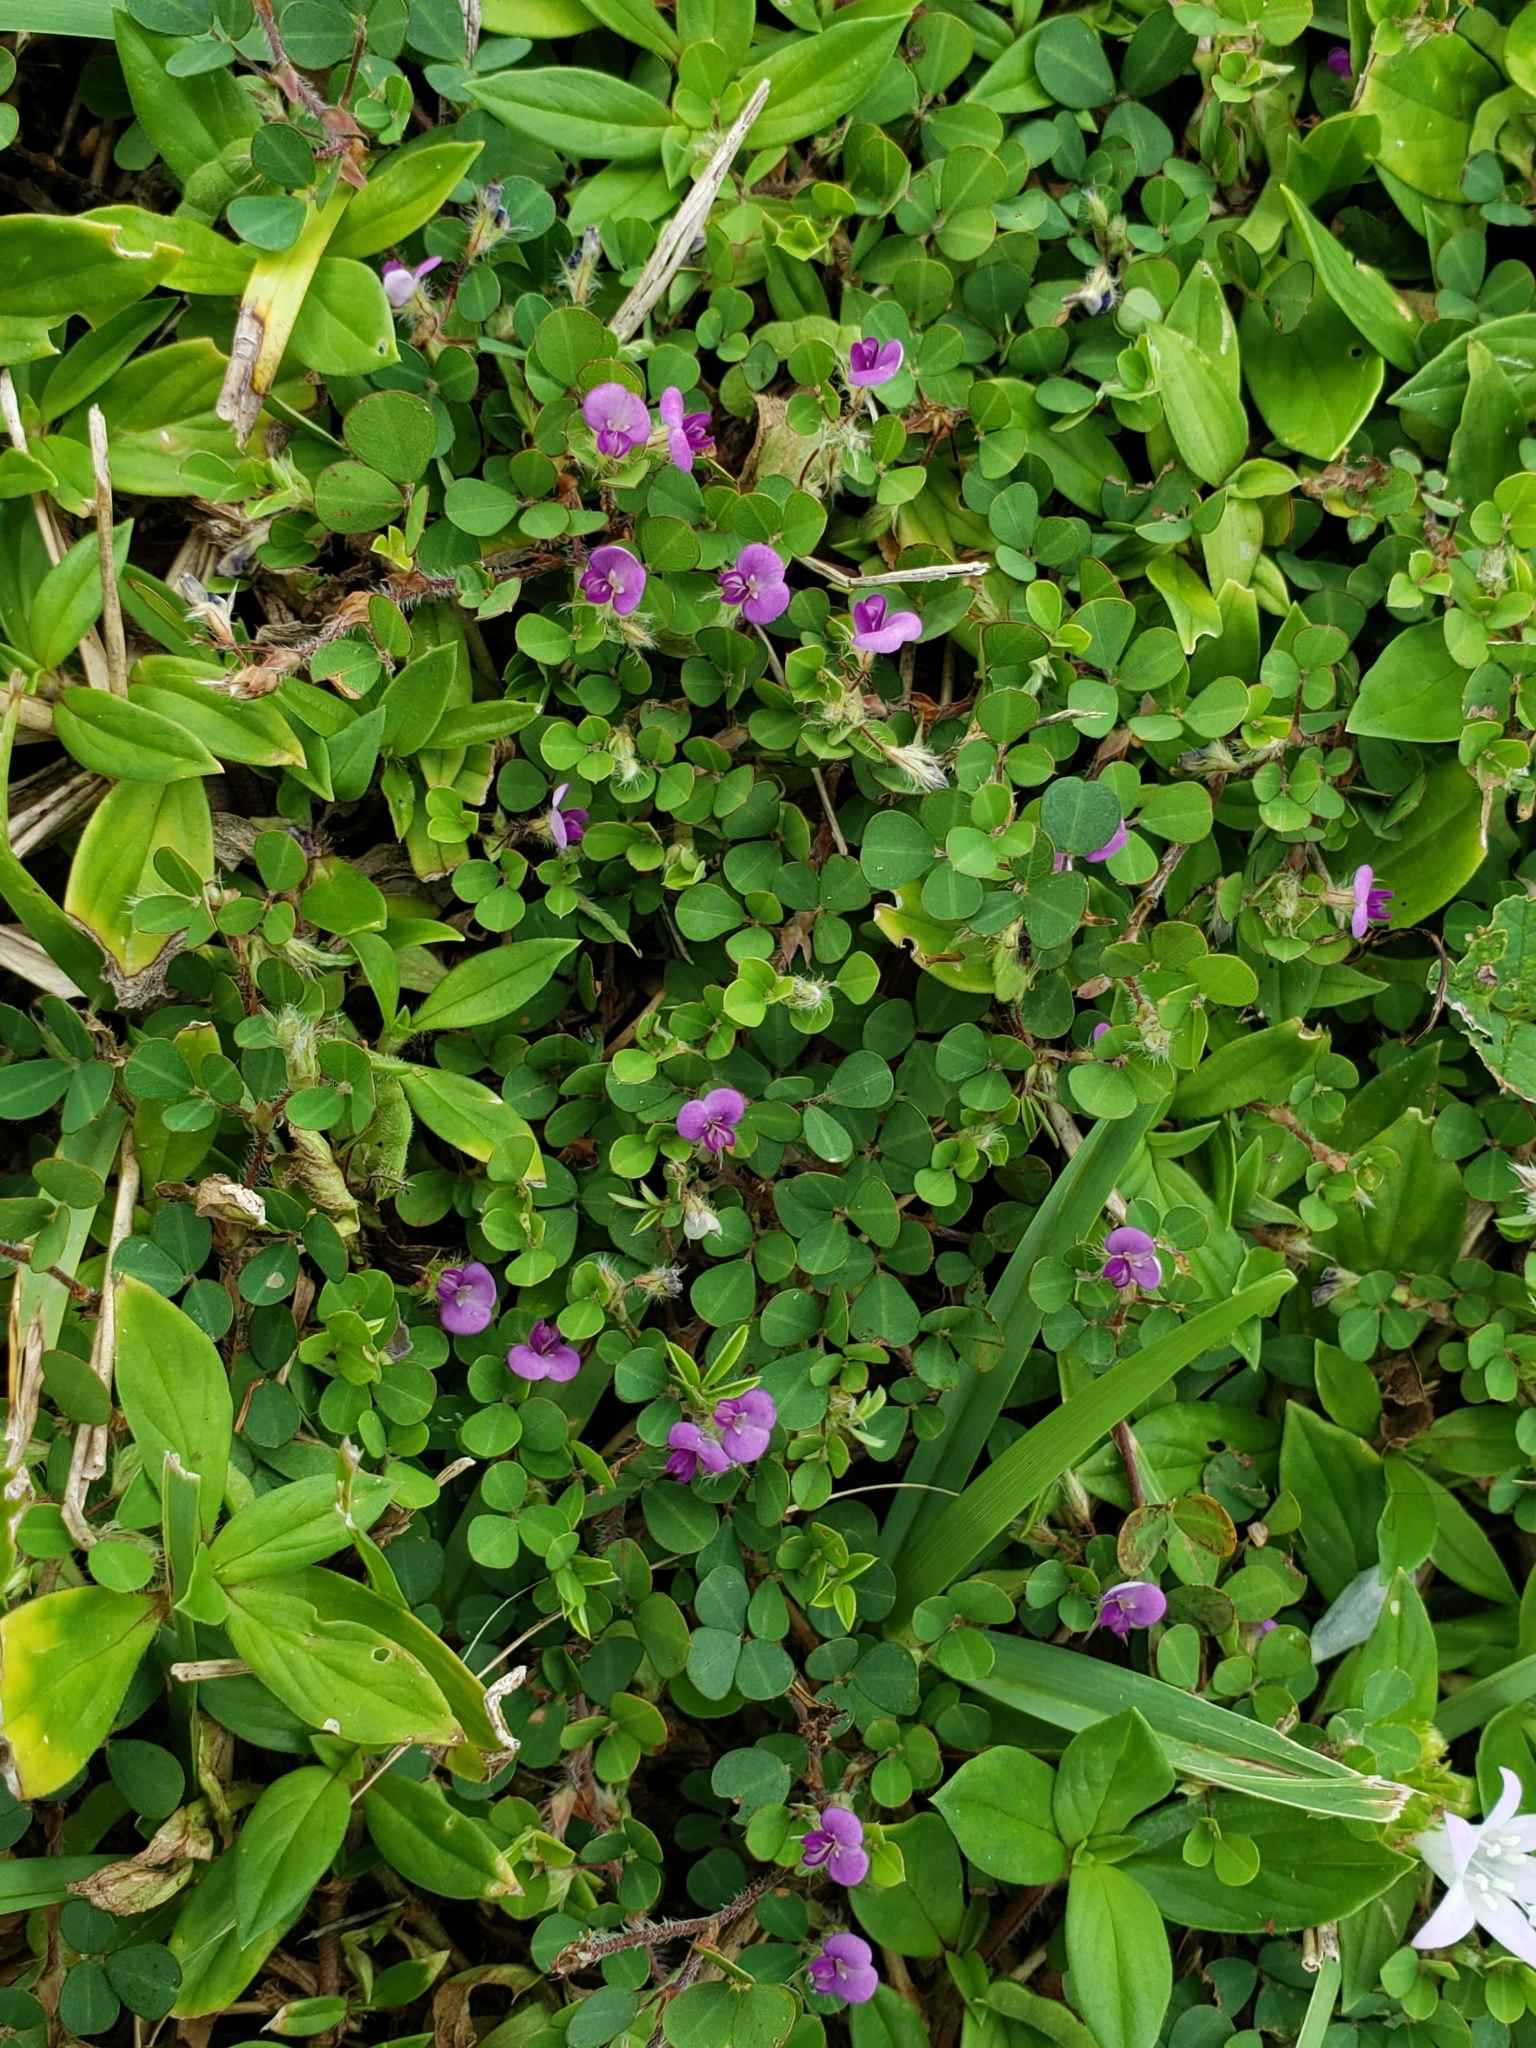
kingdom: Plantae
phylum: Tracheophyta
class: Magnoliopsida
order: Fabales
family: Fabaceae
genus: Grona
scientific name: Grona triflora
